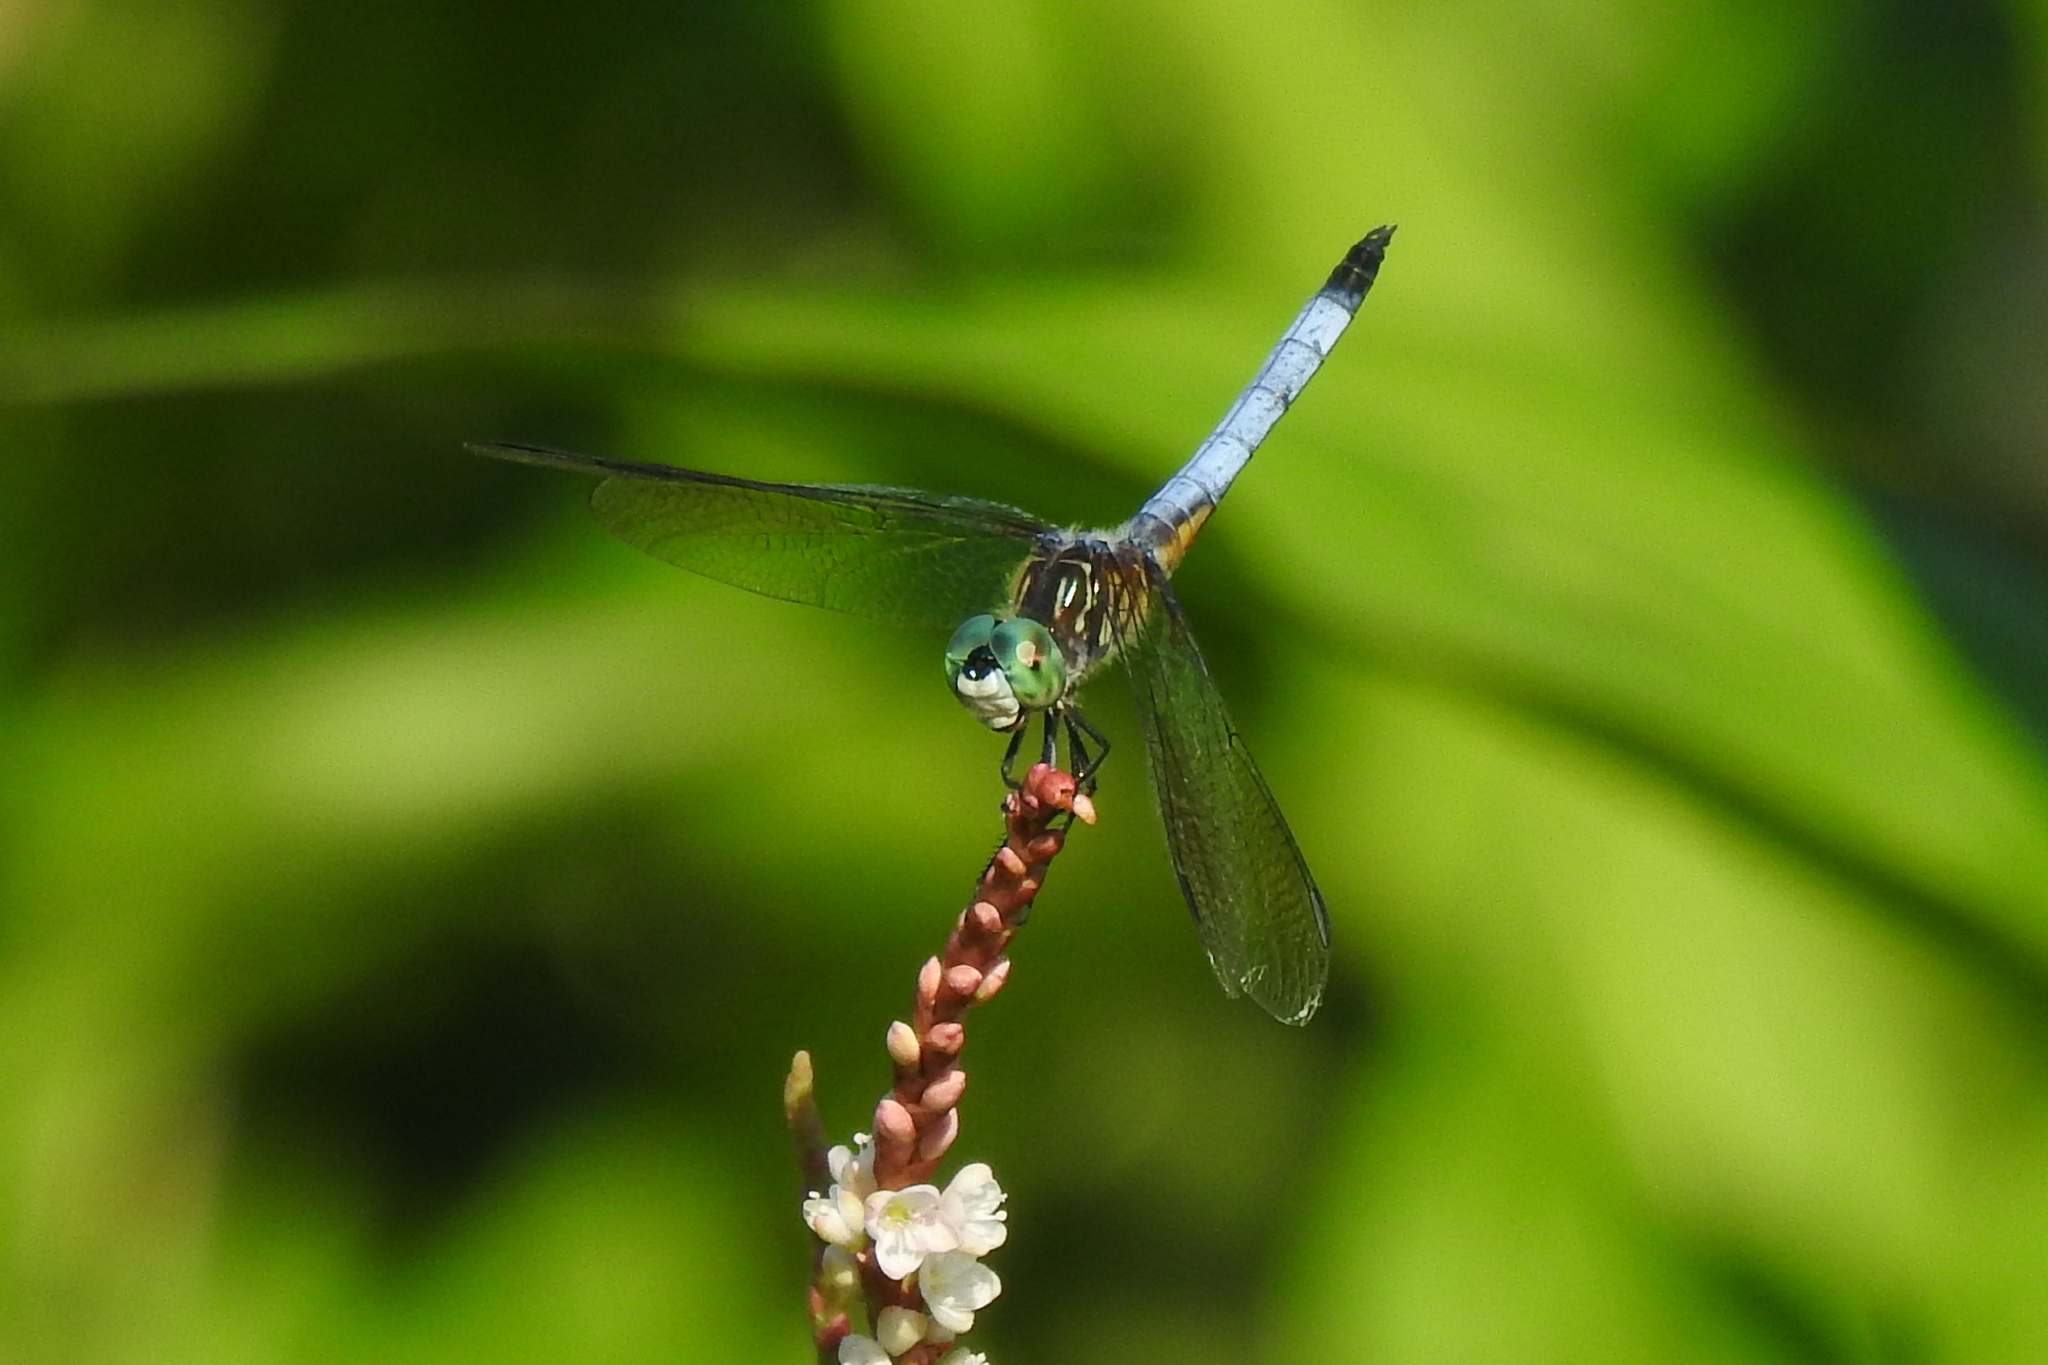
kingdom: Animalia
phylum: Arthropoda
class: Insecta
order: Odonata
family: Libellulidae
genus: Pachydiplax
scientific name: Pachydiplax longipennis
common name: Blue dasher
